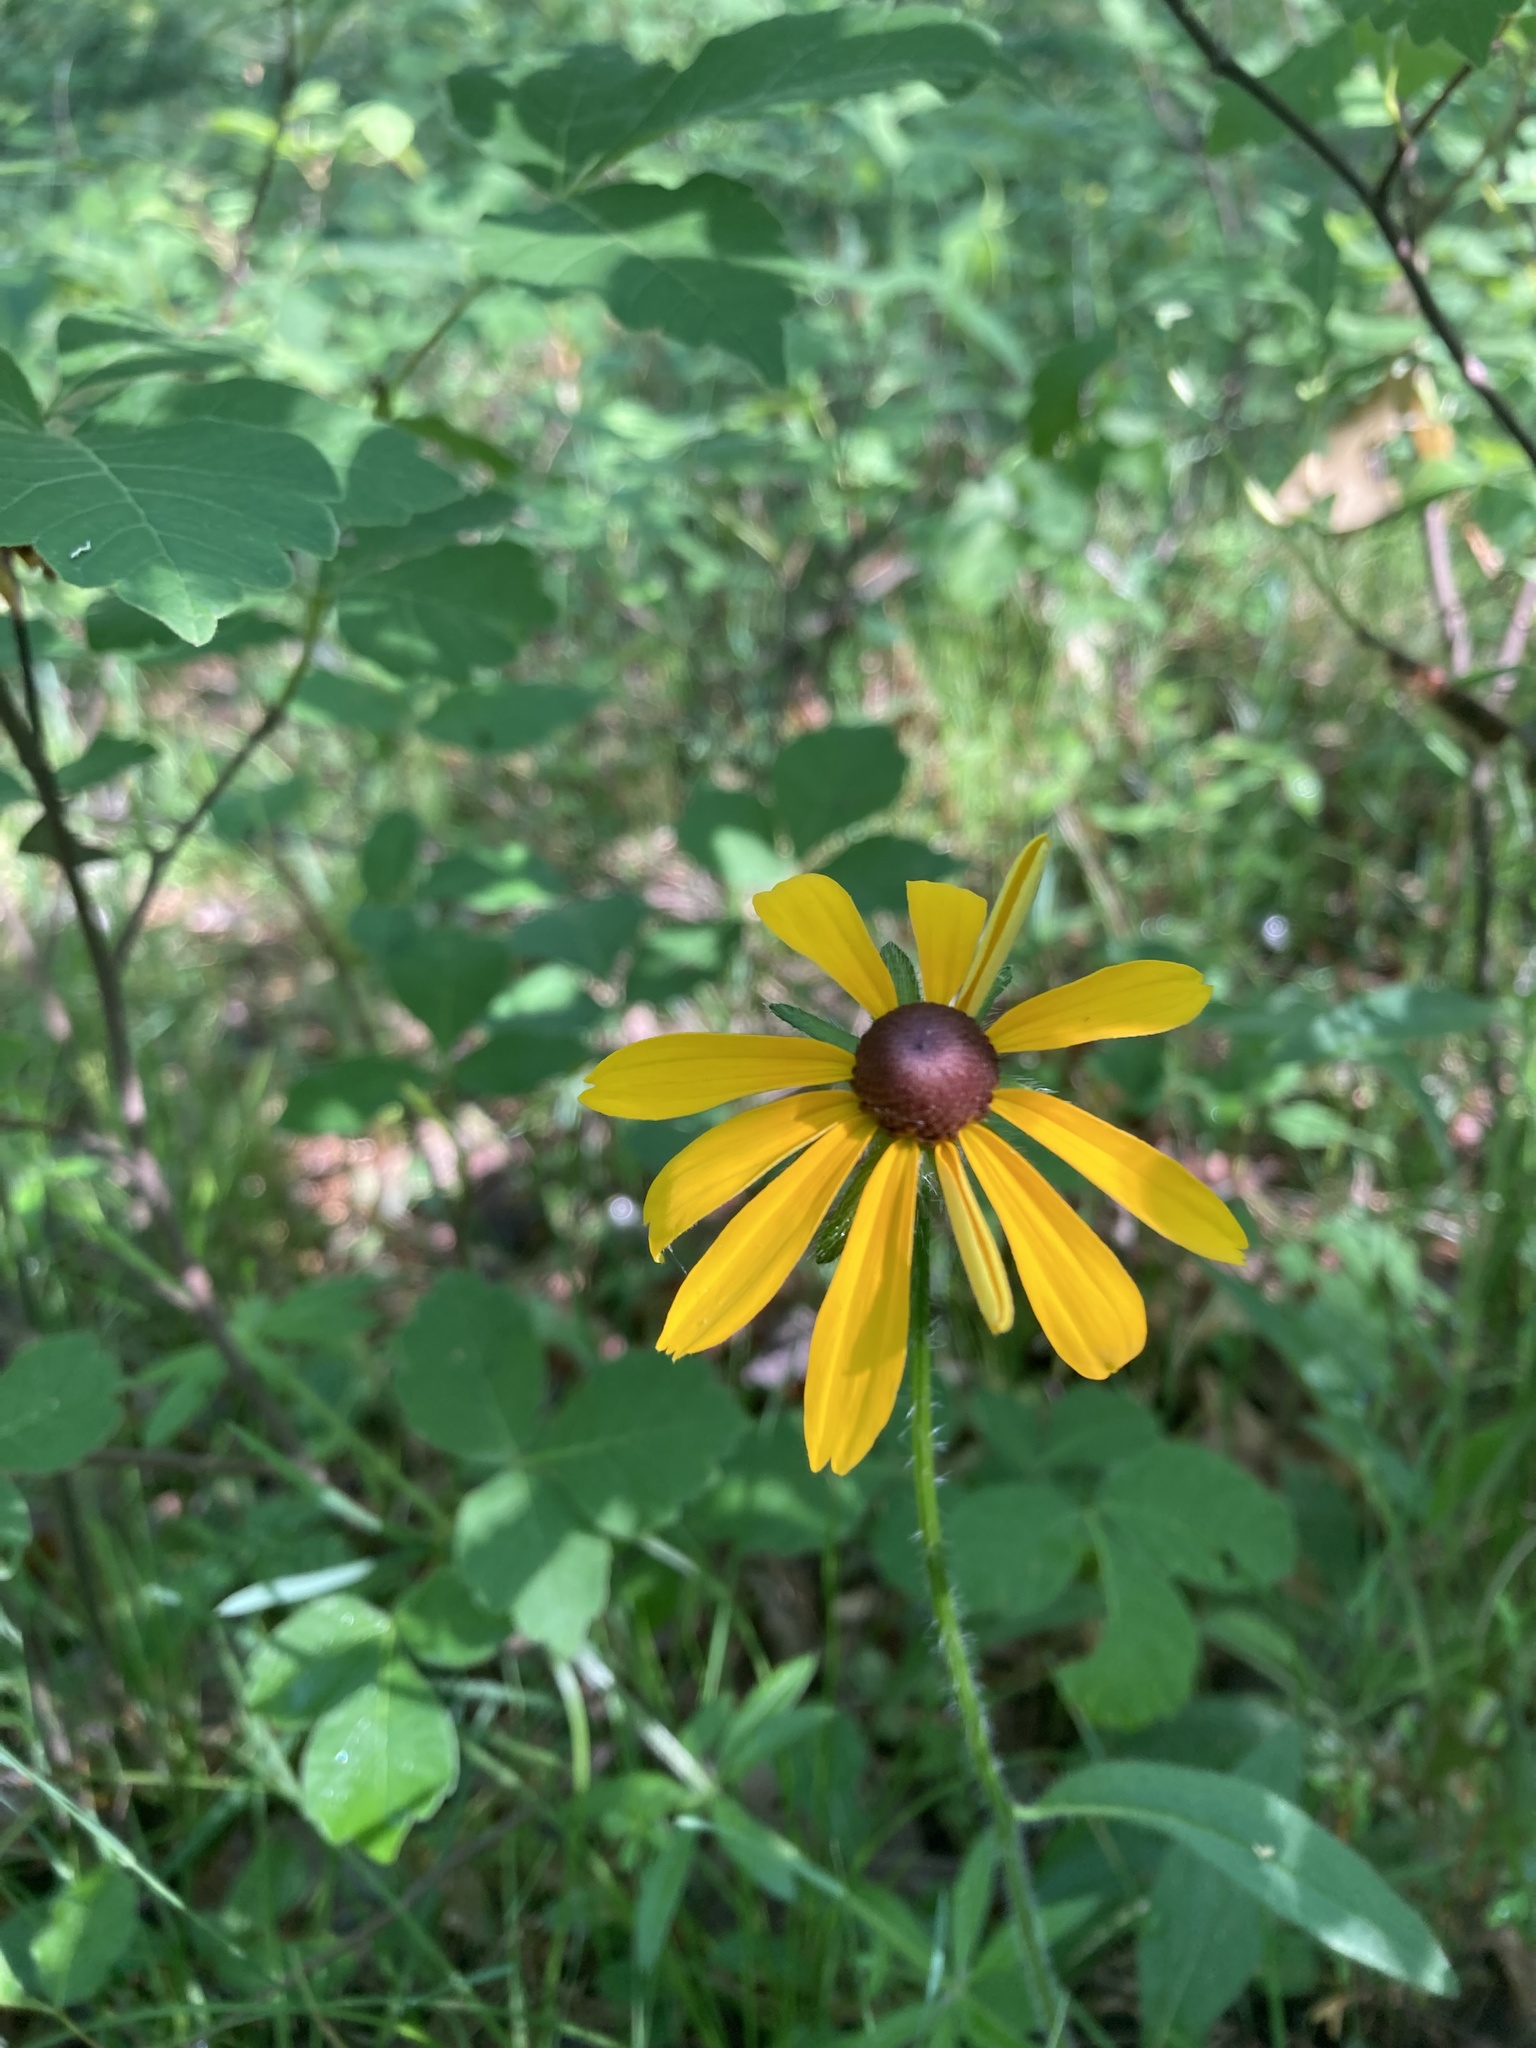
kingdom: Plantae
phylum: Tracheophyta
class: Magnoliopsida
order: Asterales
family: Asteraceae
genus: Rudbeckia
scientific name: Rudbeckia hirta
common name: Black-eyed-susan
